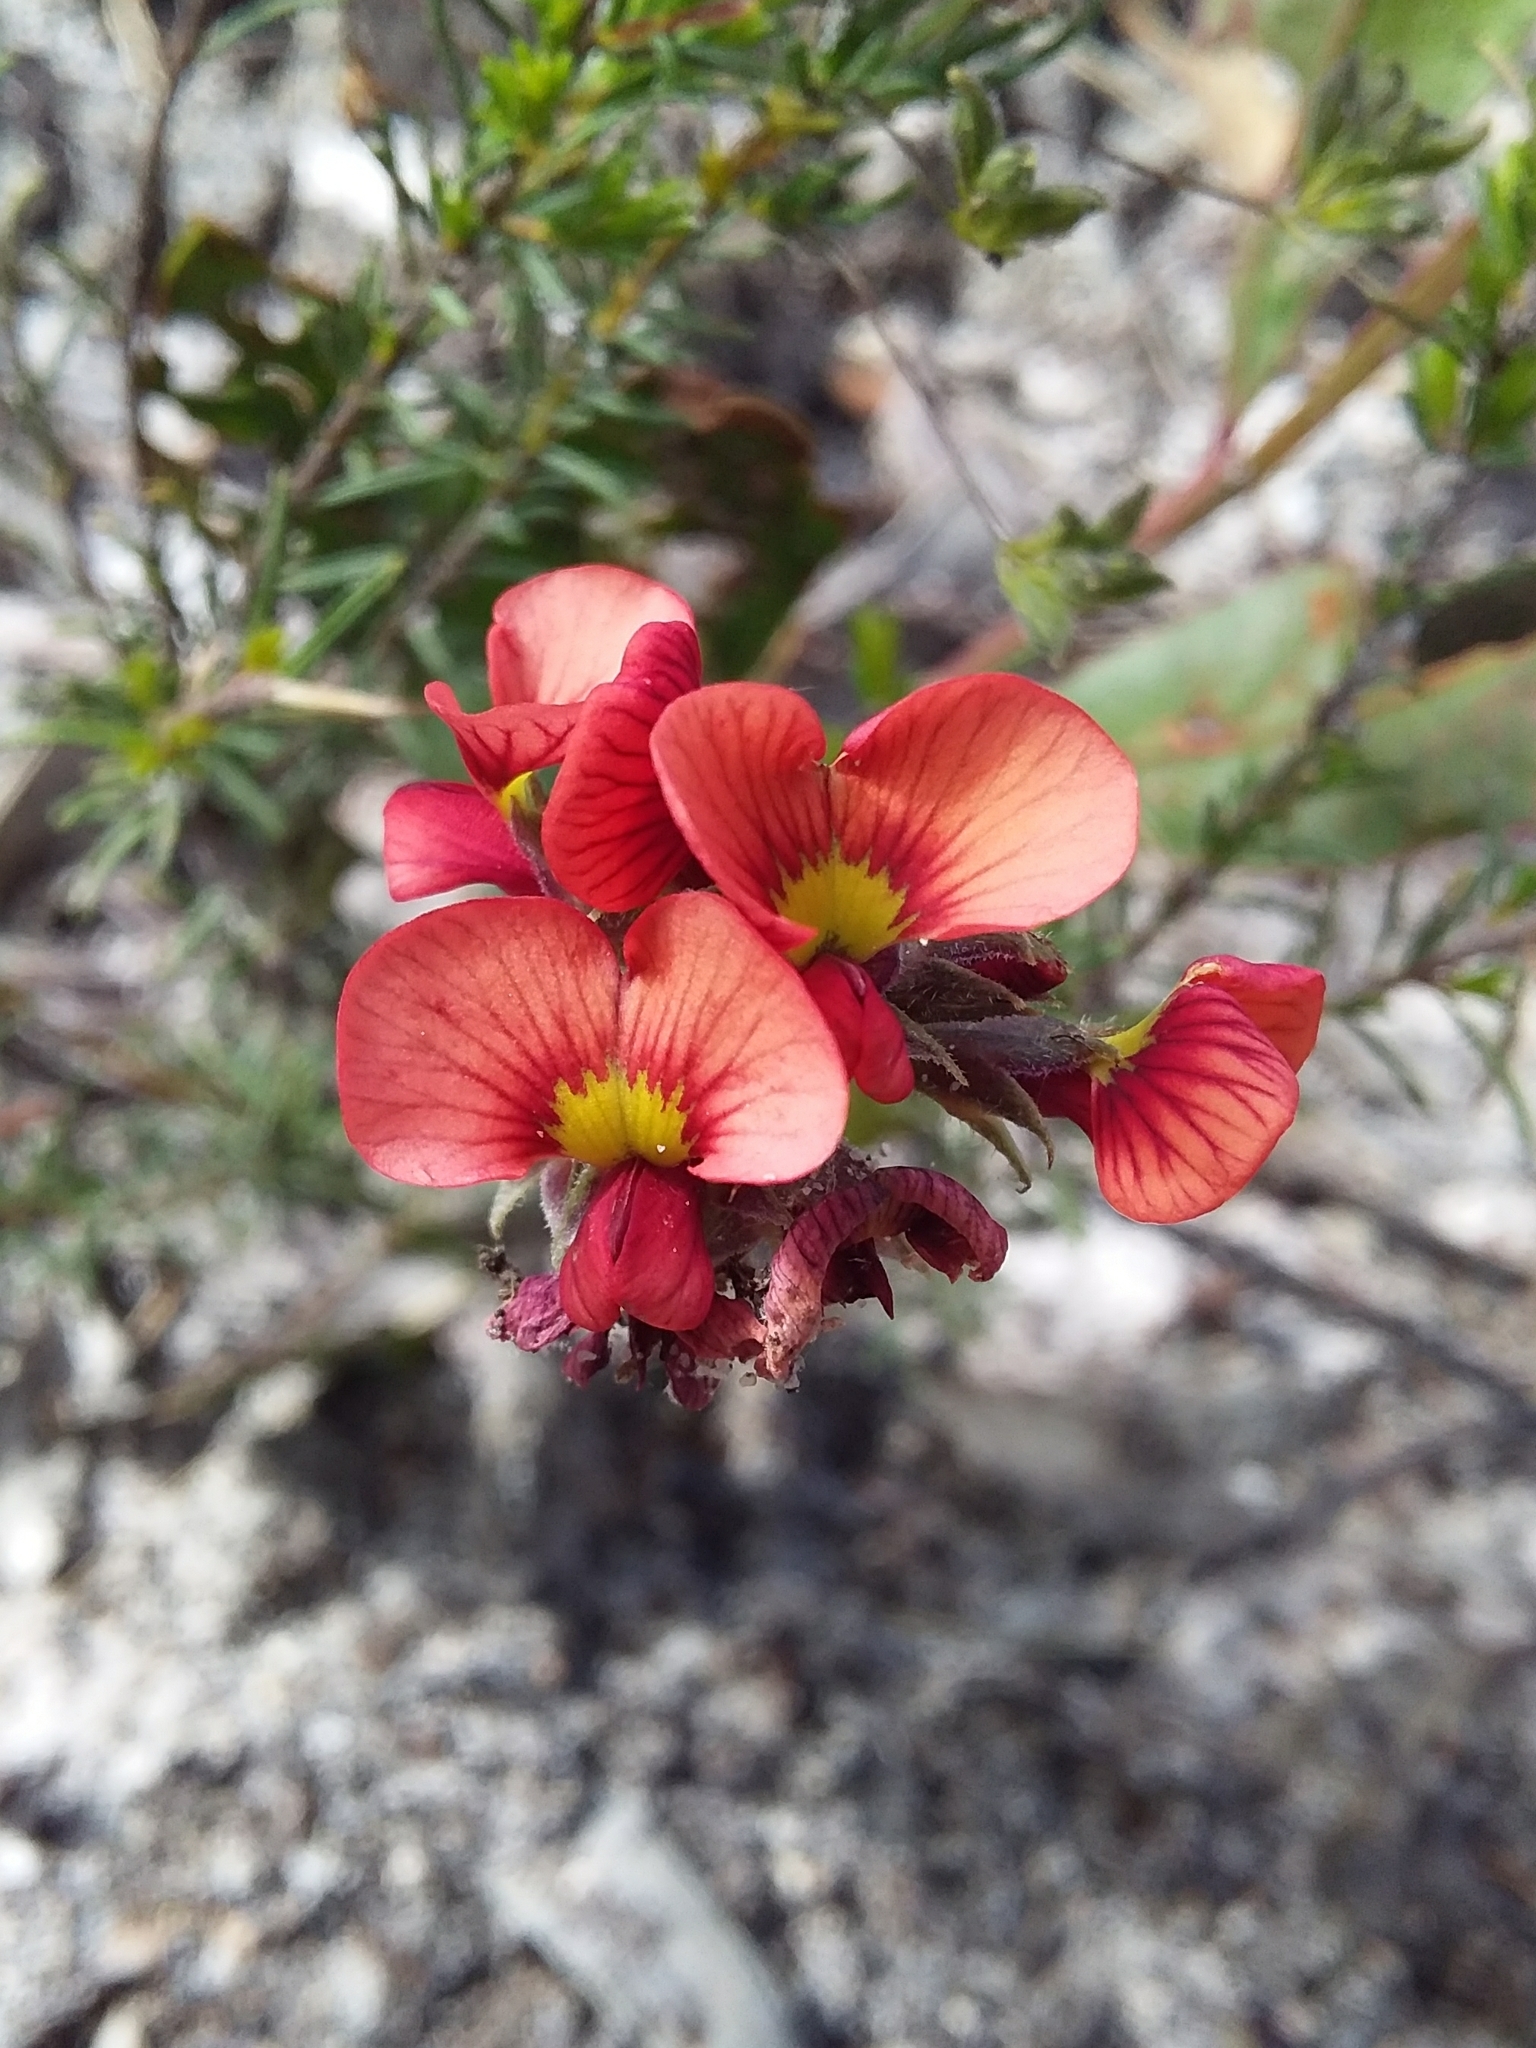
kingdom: Plantae
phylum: Tracheophyta
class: Magnoliopsida
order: Fabales
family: Fabaceae
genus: Dillwynia
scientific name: Dillwynia hispida
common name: Red parrot-pea
